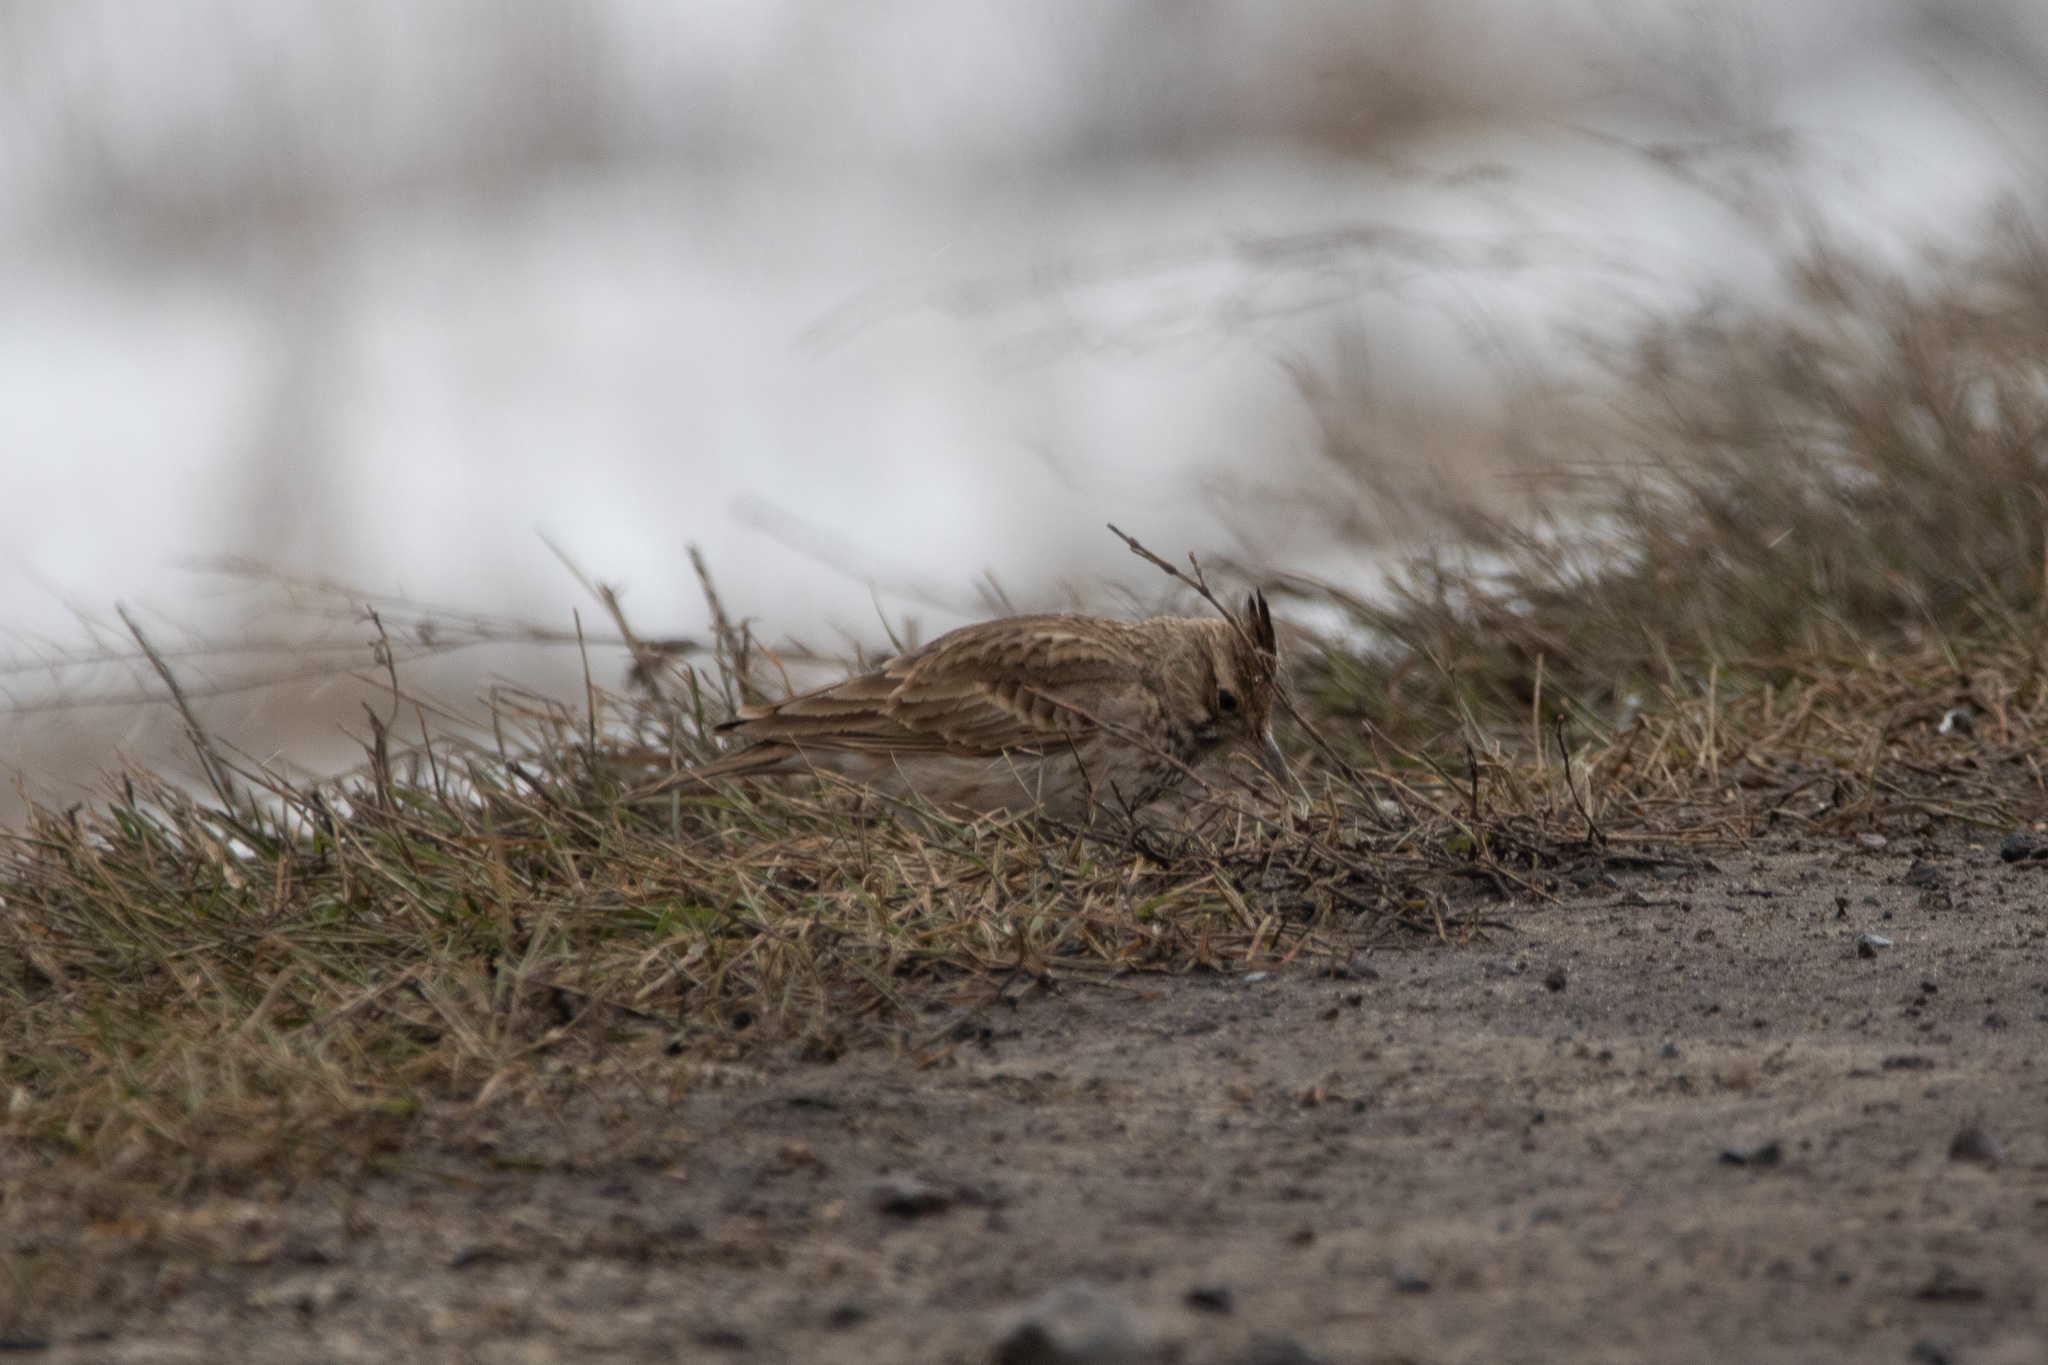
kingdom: Animalia
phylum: Chordata
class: Aves
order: Passeriformes
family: Alaudidae
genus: Galerida
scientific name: Galerida cristata
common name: Crested lark
